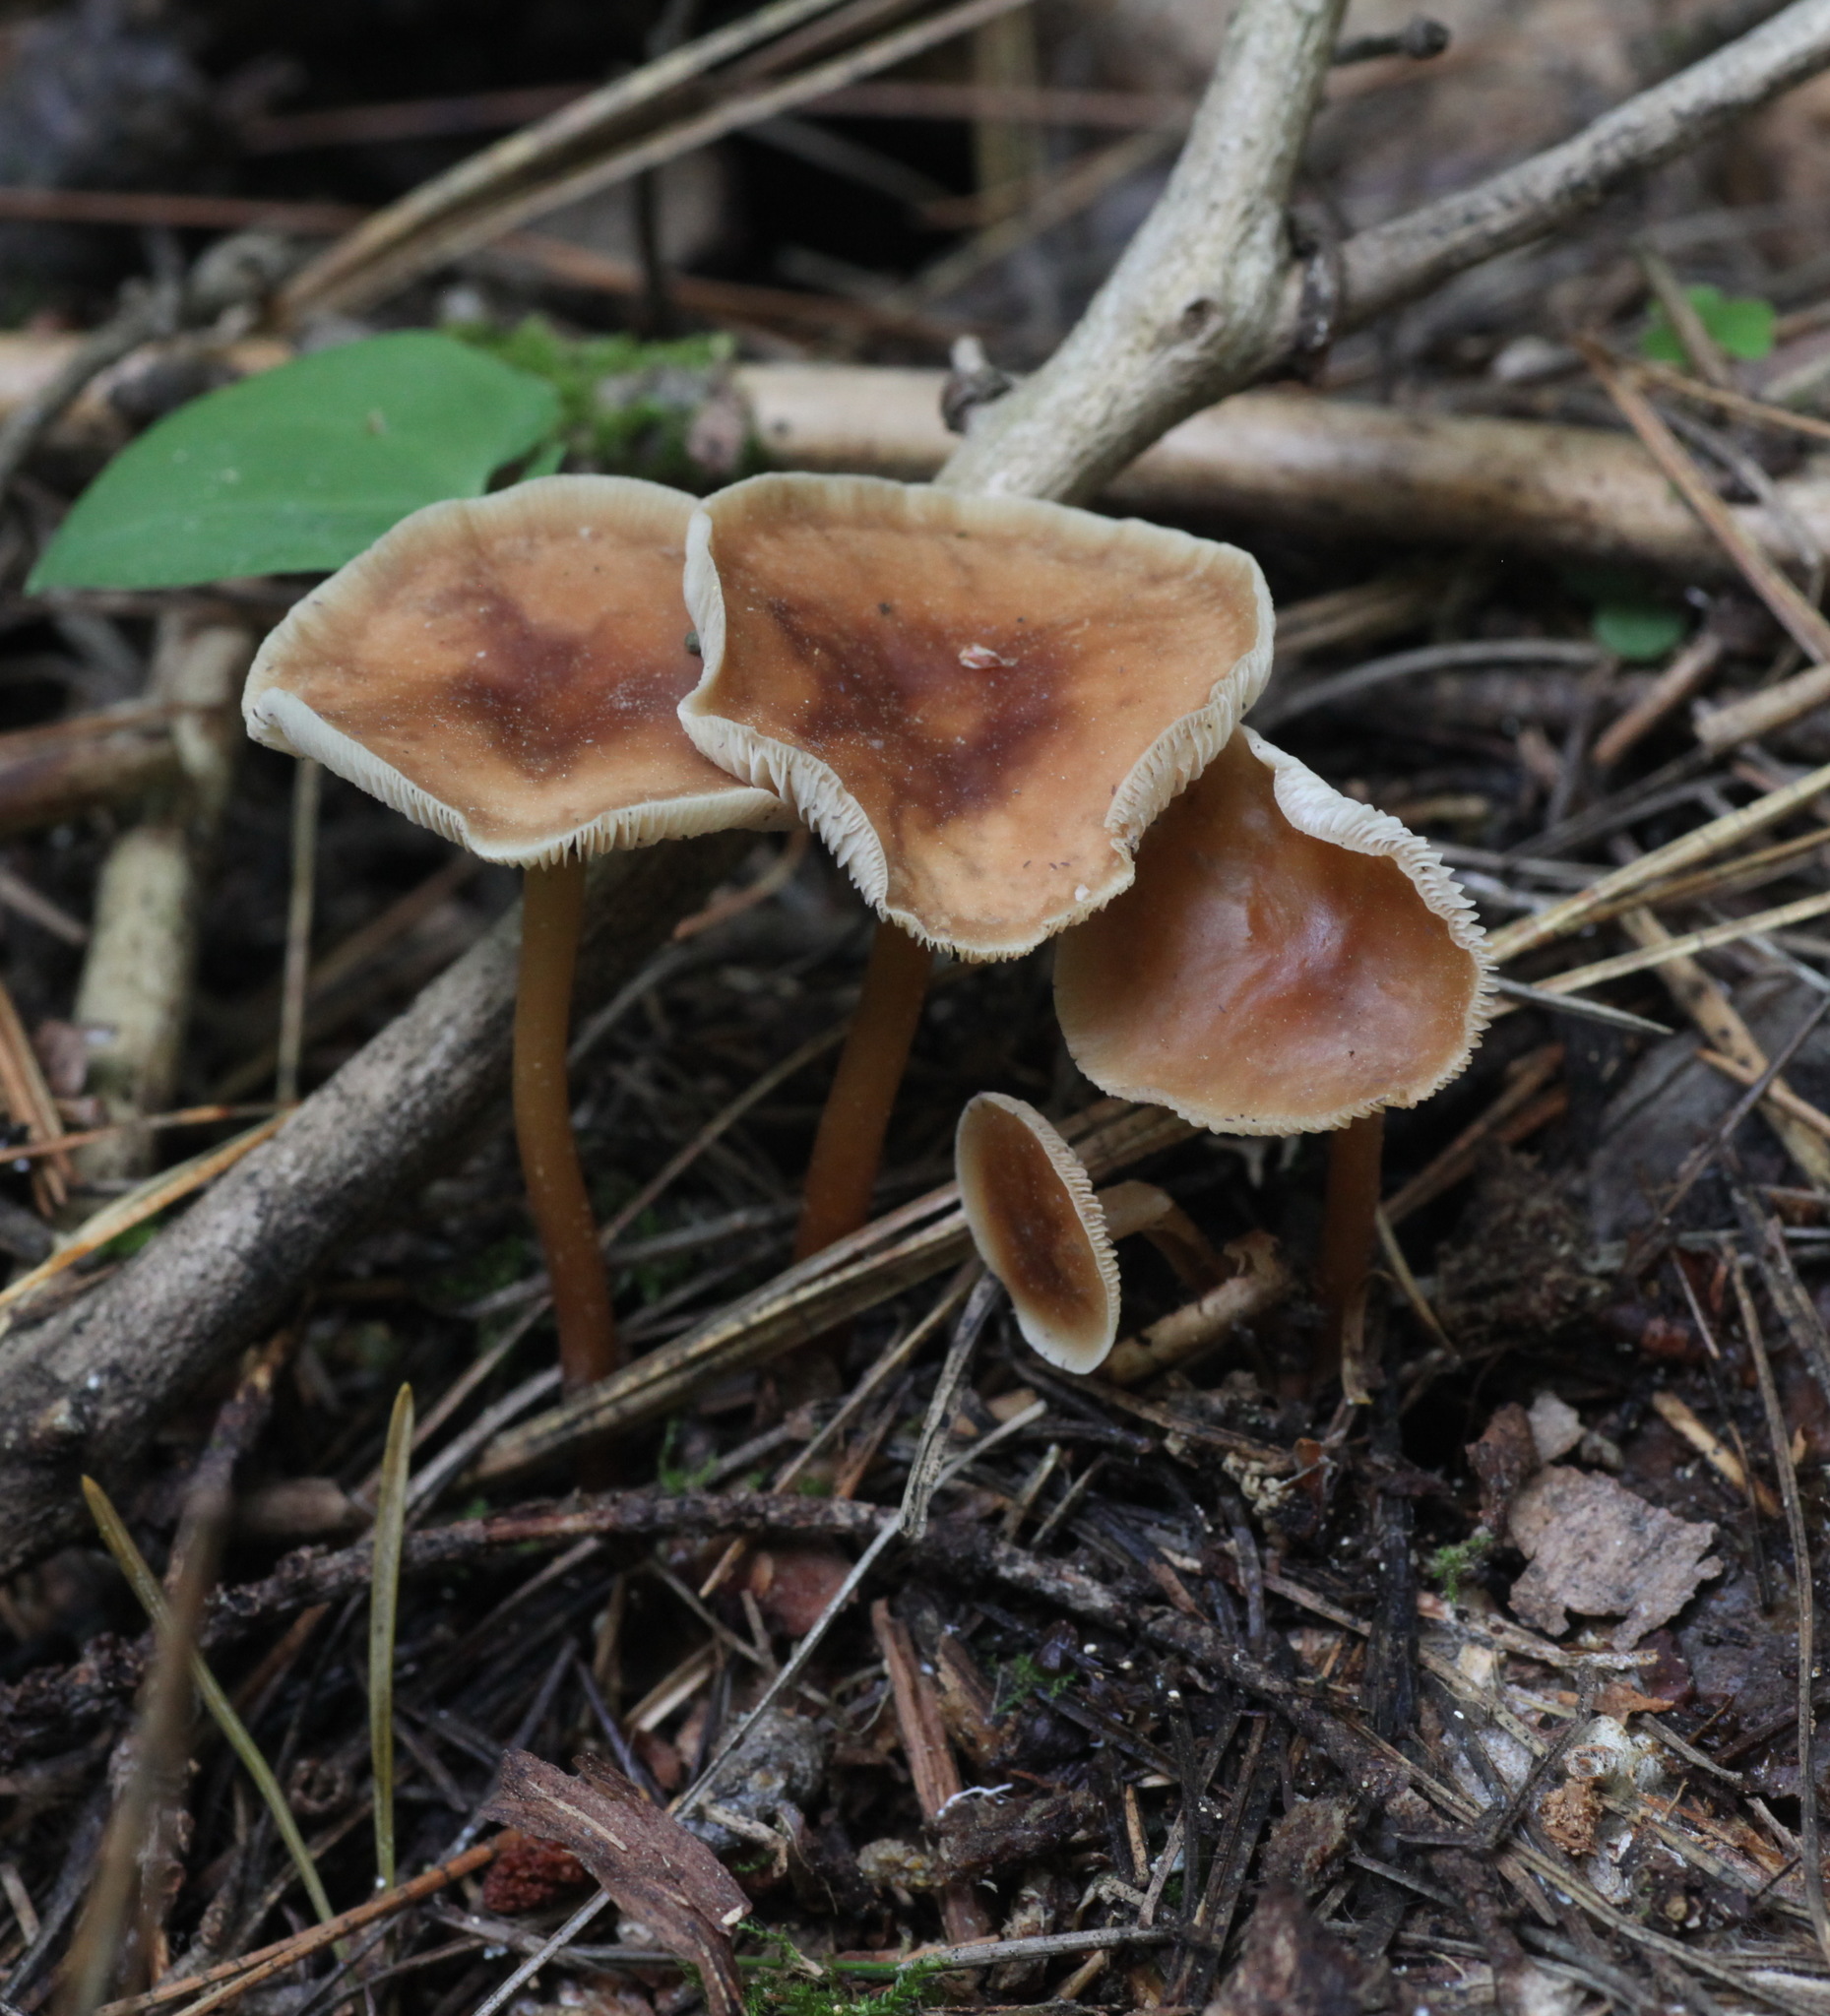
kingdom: Fungi
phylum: Basidiomycota
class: Agaricomycetes
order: Agaricales
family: Omphalotaceae
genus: Gymnopus
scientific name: Gymnopus dryophilus
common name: Penny top
